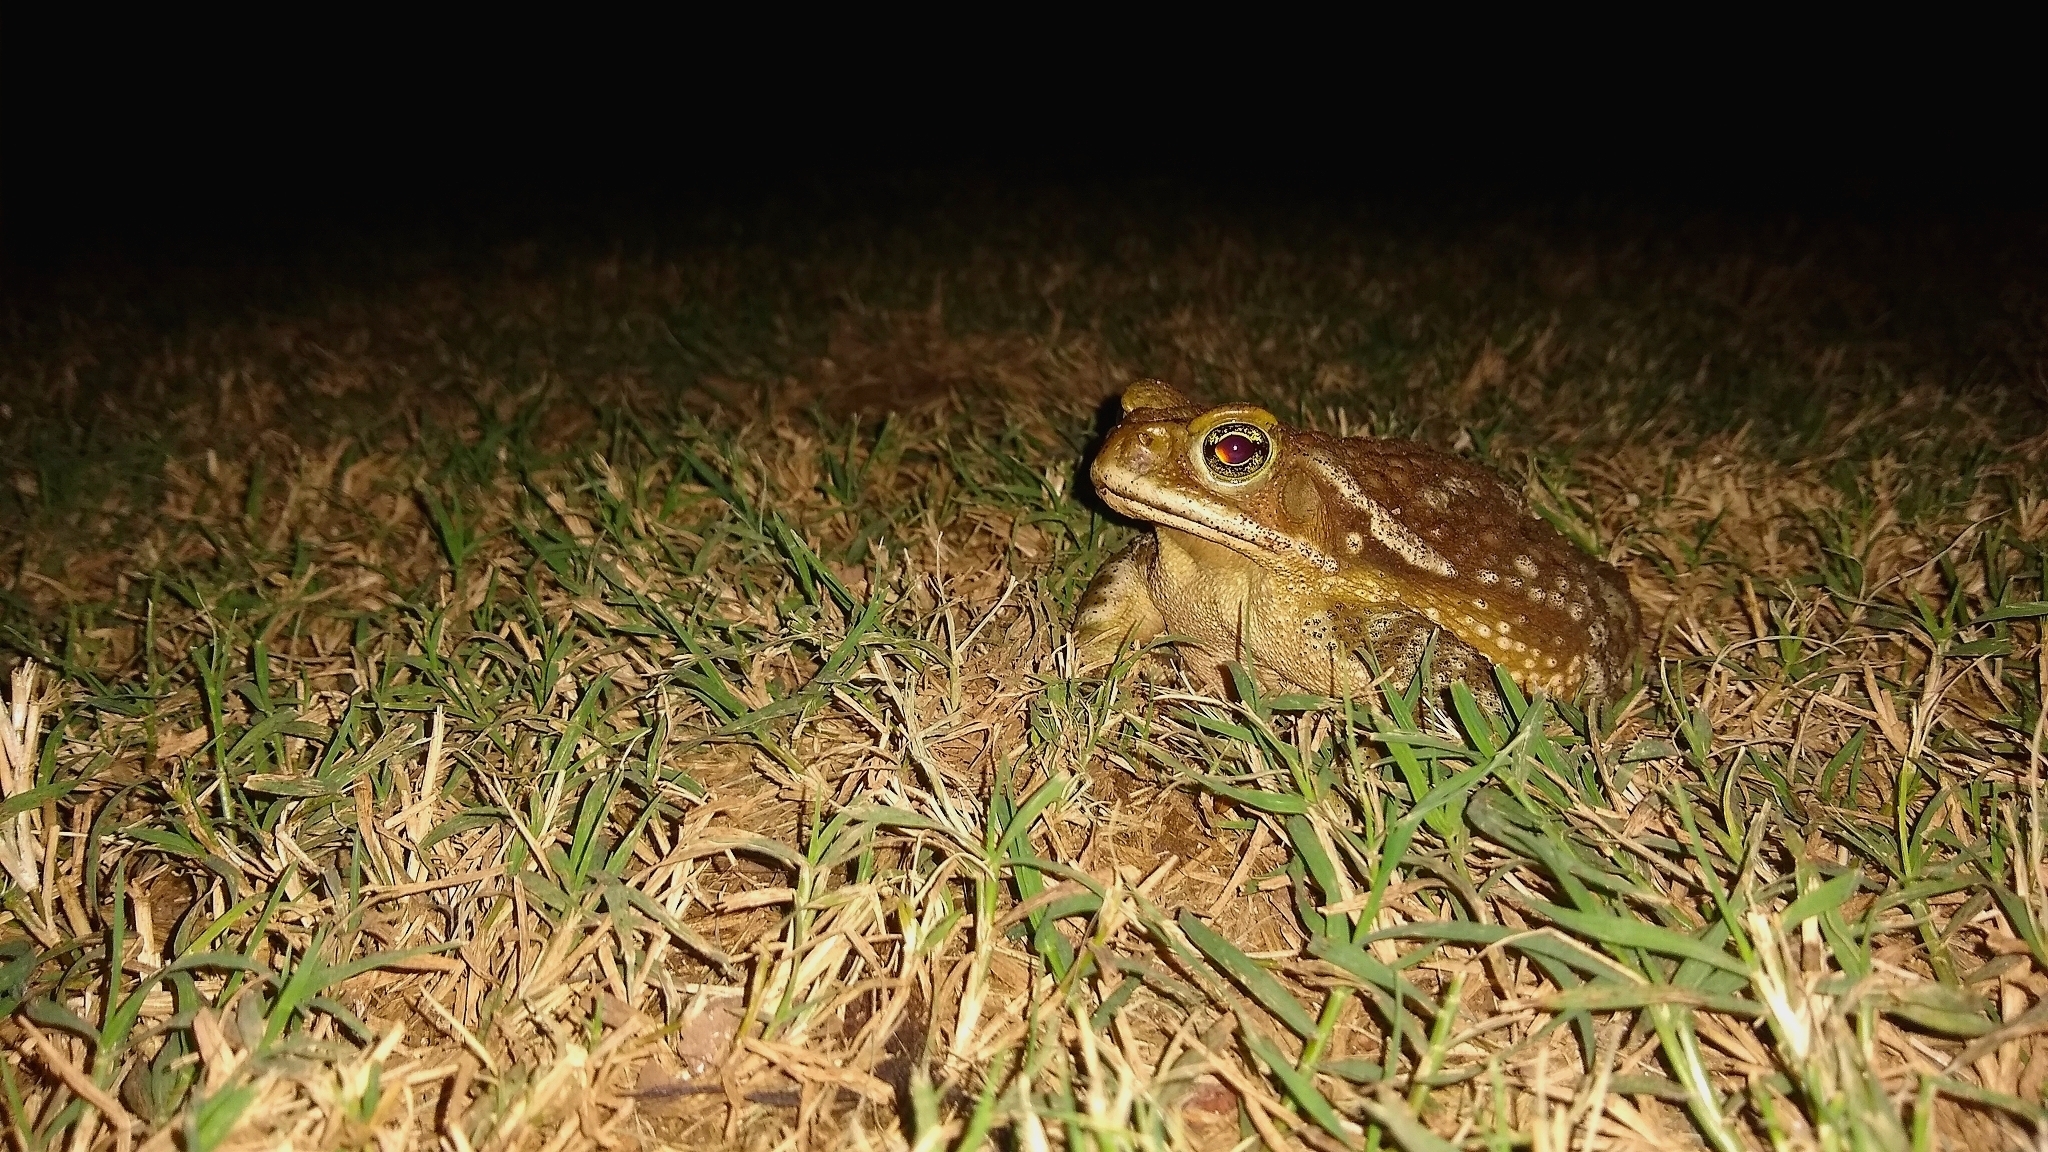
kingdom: Animalia
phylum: Chordata
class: Amphibia
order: Anura
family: Bufonidae
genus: Rhinella
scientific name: Rhinella arenarum
